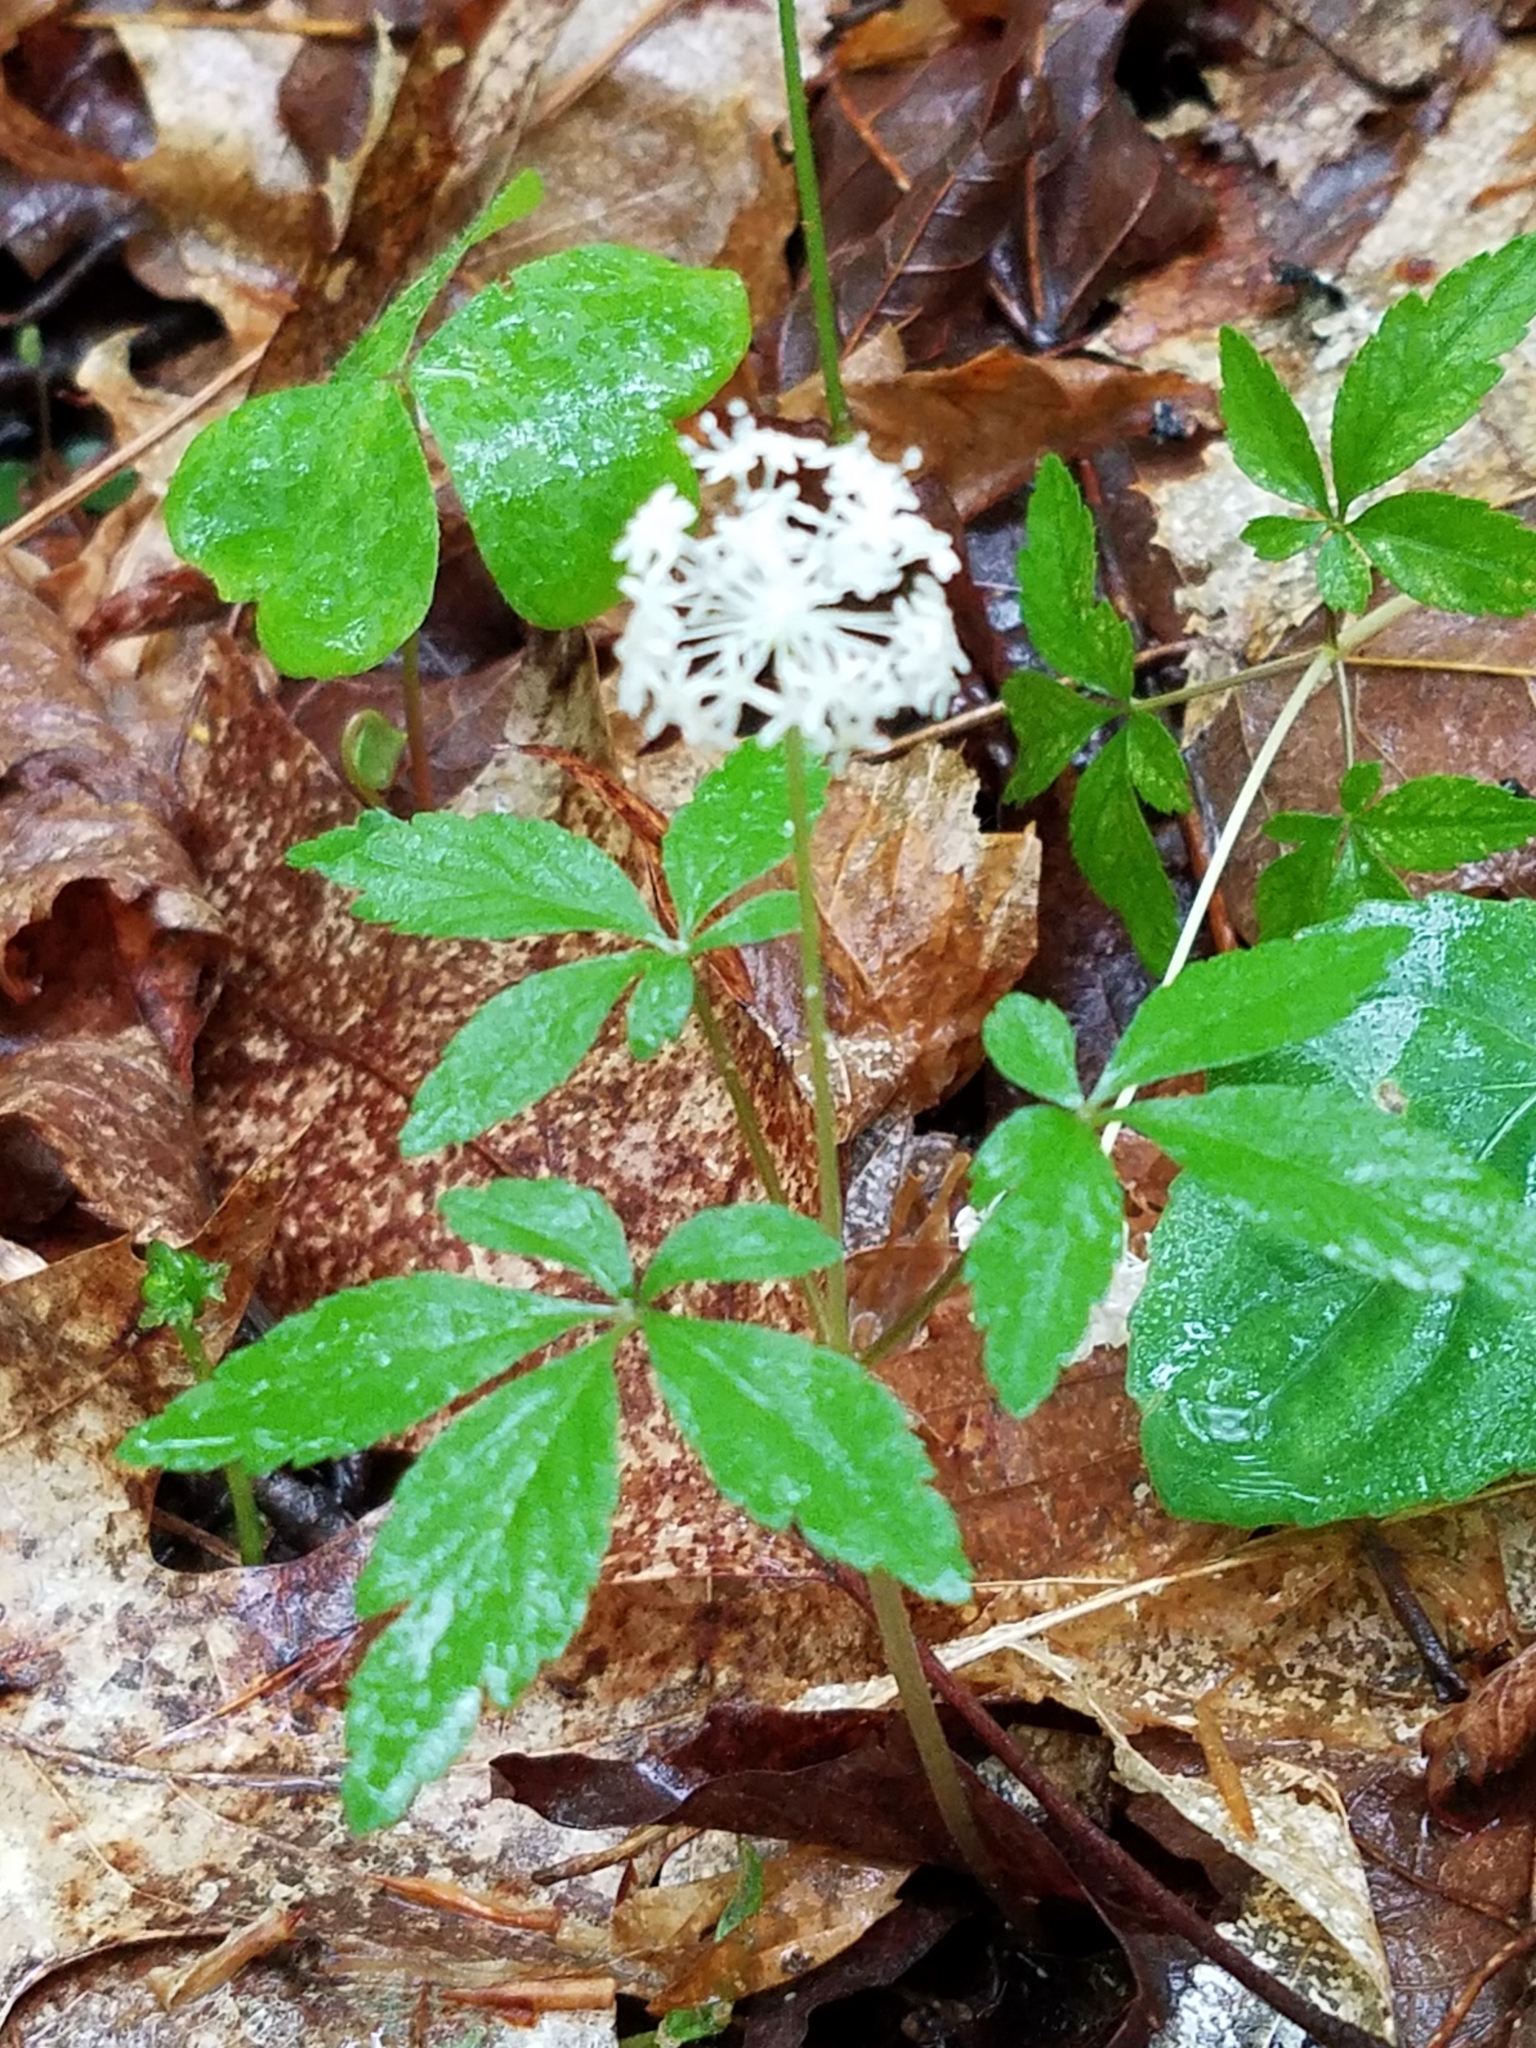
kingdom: Plantae
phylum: Tracheophyta
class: Magnoliopsida
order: Apiales
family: Araliaceae
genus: Panax
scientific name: Panax trifolius
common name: Dwarf ginseng
